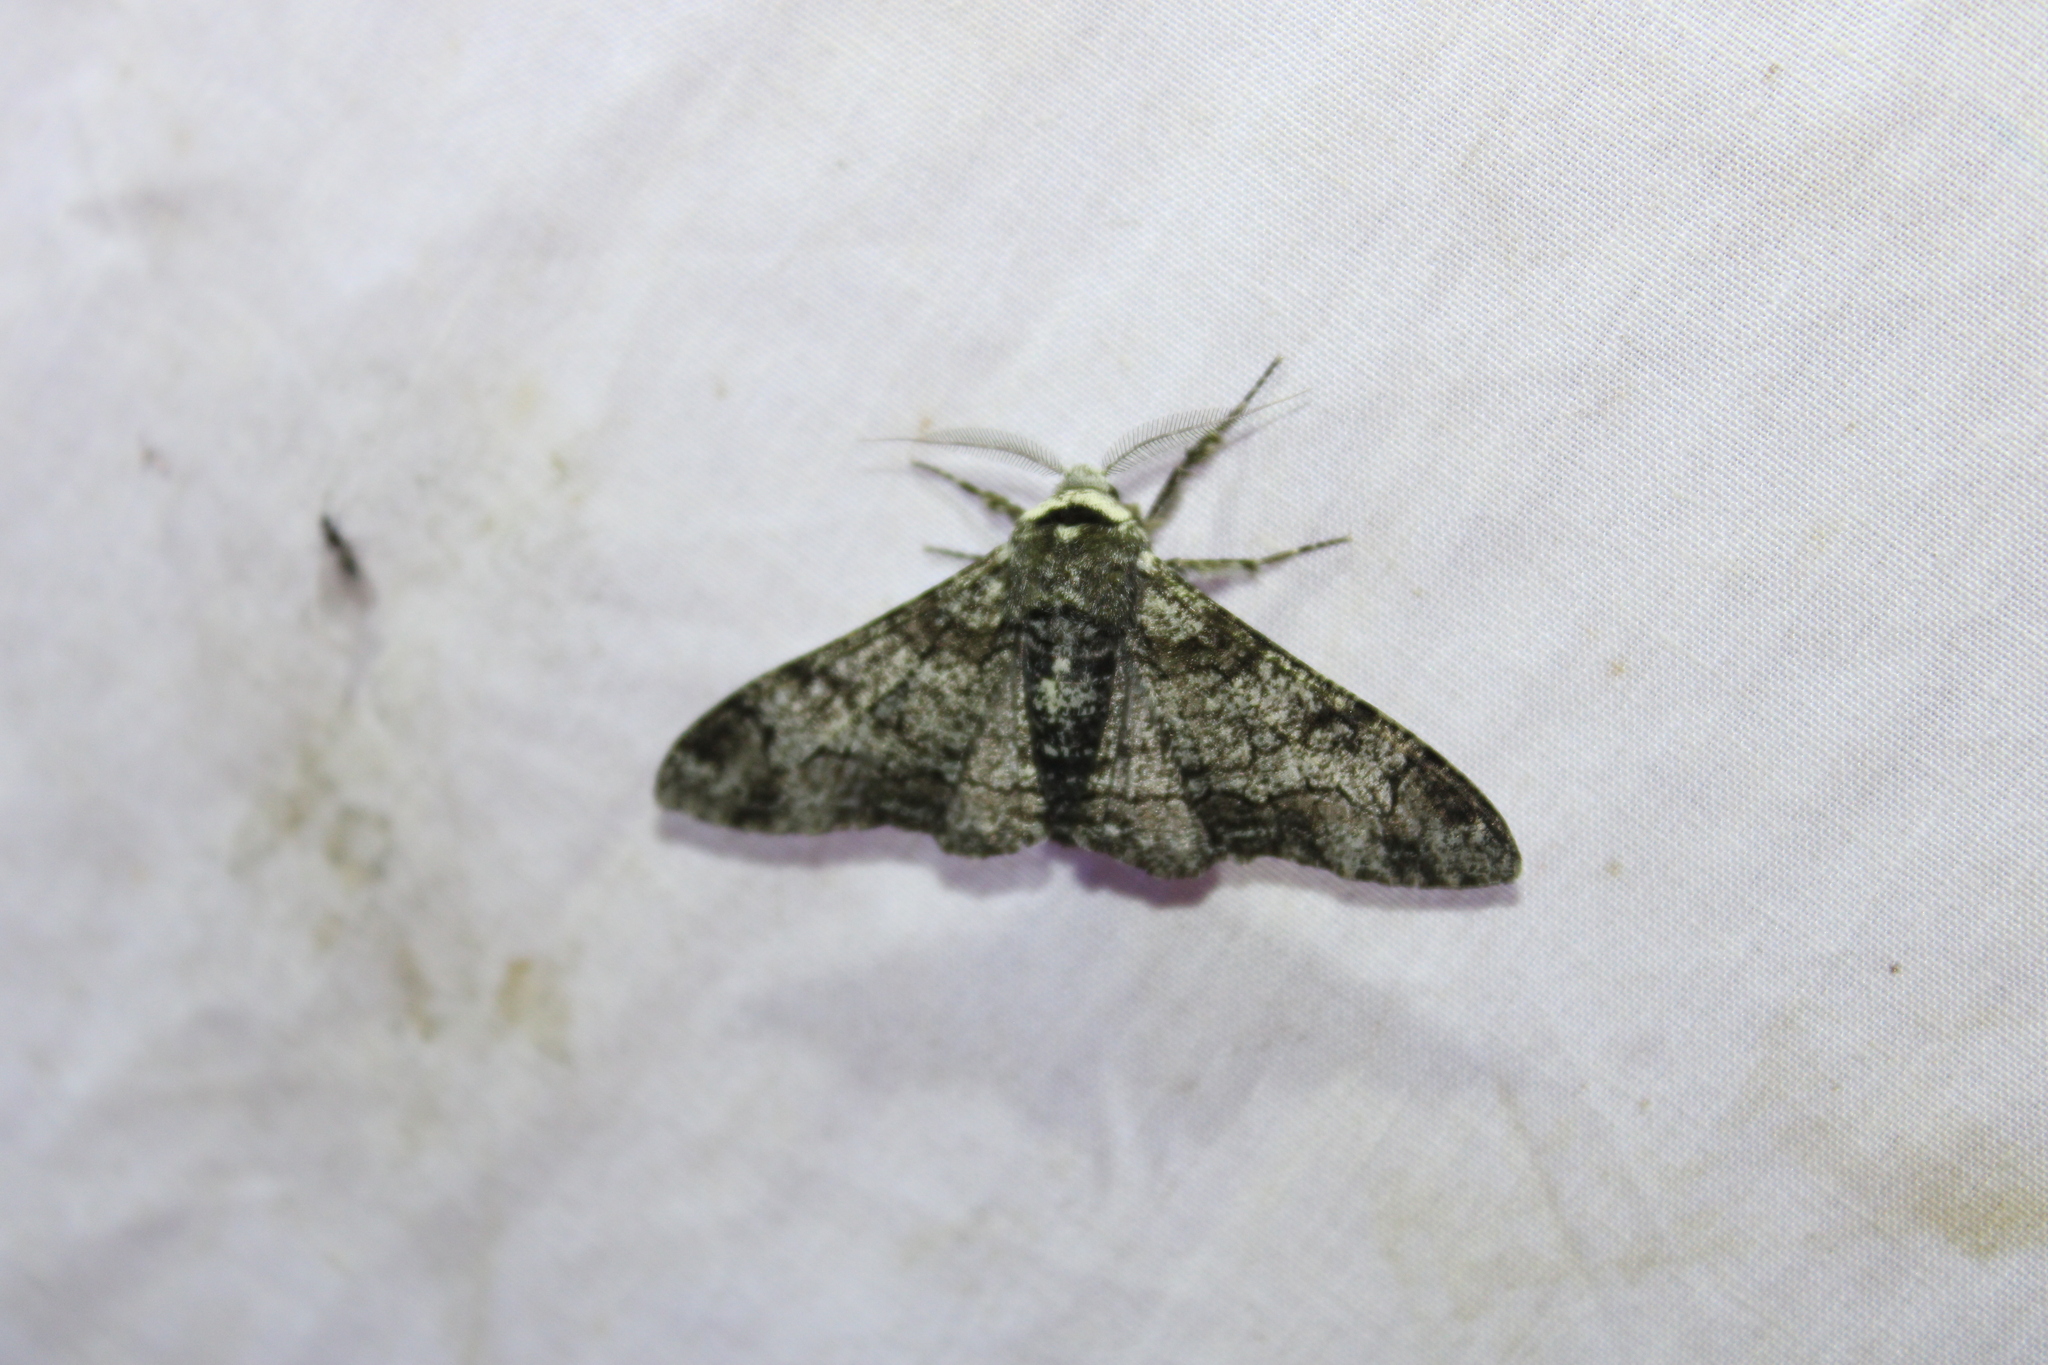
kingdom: Animalia
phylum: Arthropoda
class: Insecta
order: Lepidoptera
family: Geometridae
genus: Biston
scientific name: Biston betularia
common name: Peppered moth
